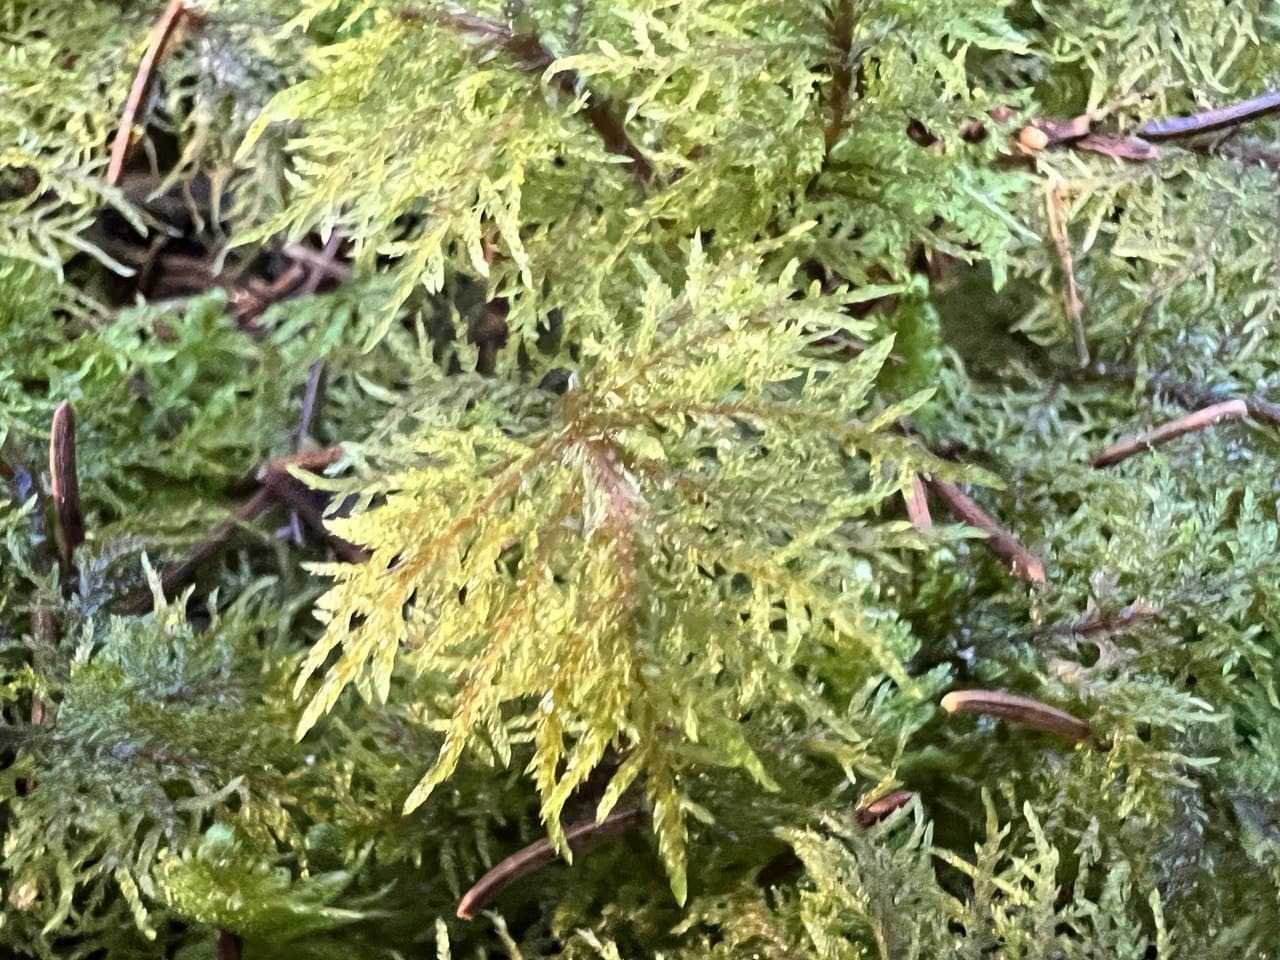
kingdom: Plantae
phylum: Bryophyta
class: Bryopsida
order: Hypnales
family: Hylocomiaceae
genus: Hylocomium
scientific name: Hylocomium splendens
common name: Stairstep moss
